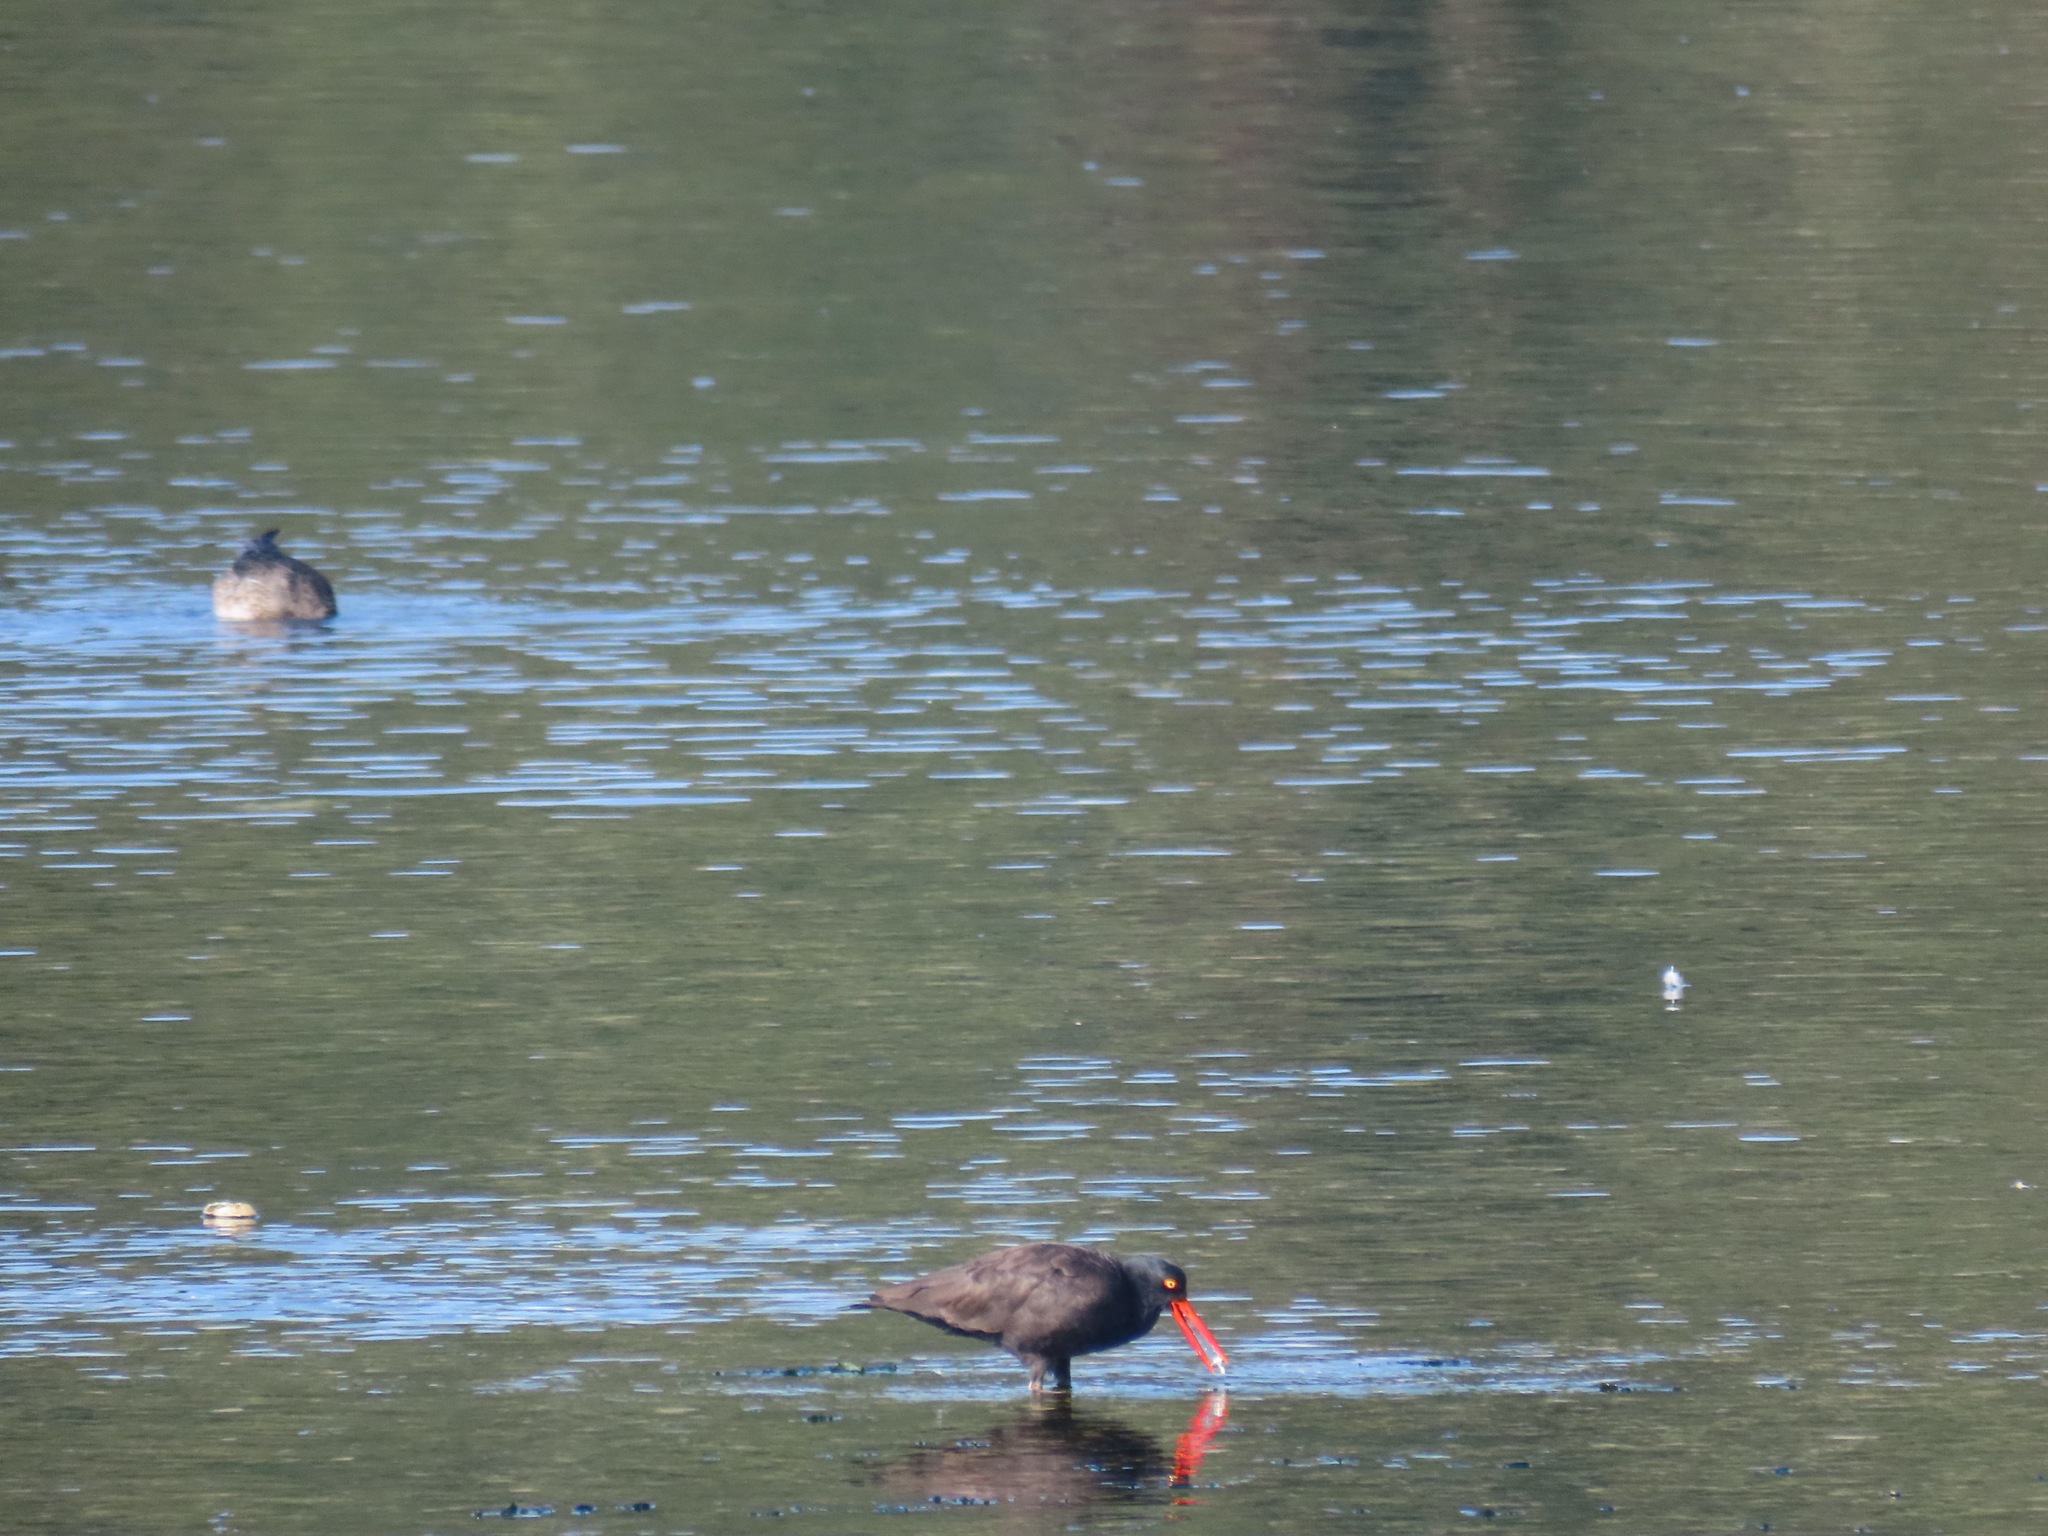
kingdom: Animalia
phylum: Chordata
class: Aves
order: Charadriiformes
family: Haematopodidae
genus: Haematopus
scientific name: Haematopus bachmani
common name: Black oystercatcher
